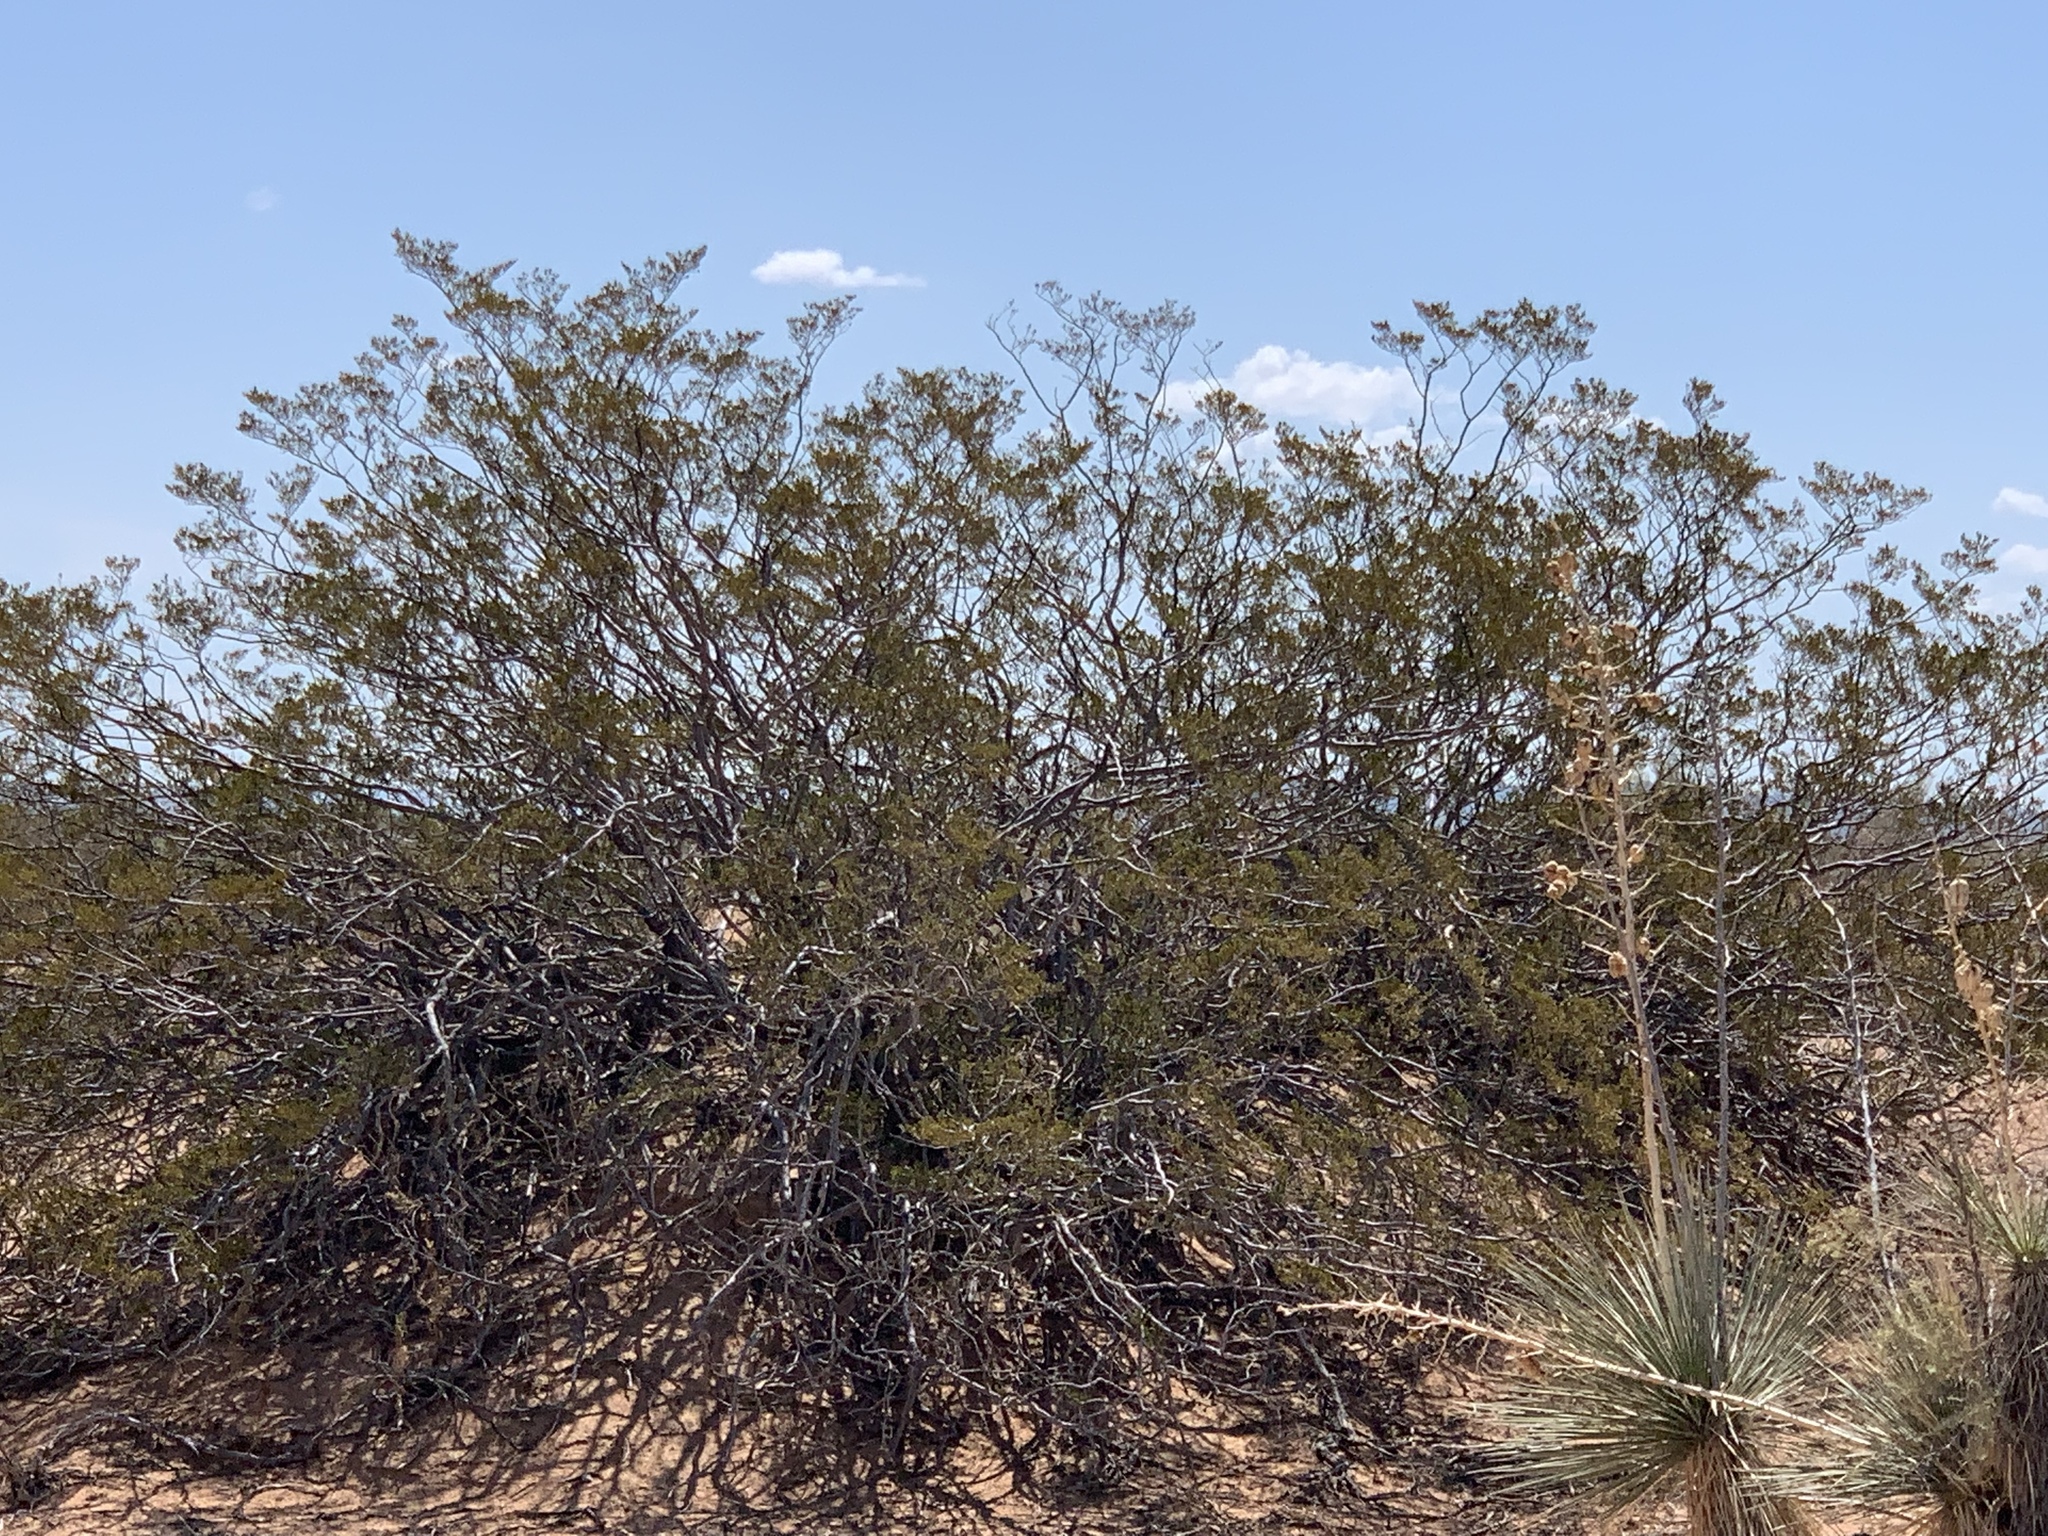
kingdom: Plantae
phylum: Tracheophyta
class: Magnoliopsida
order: Zygophyllales
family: Zygophyllaceae
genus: Larrea
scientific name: Larrea tridentata
